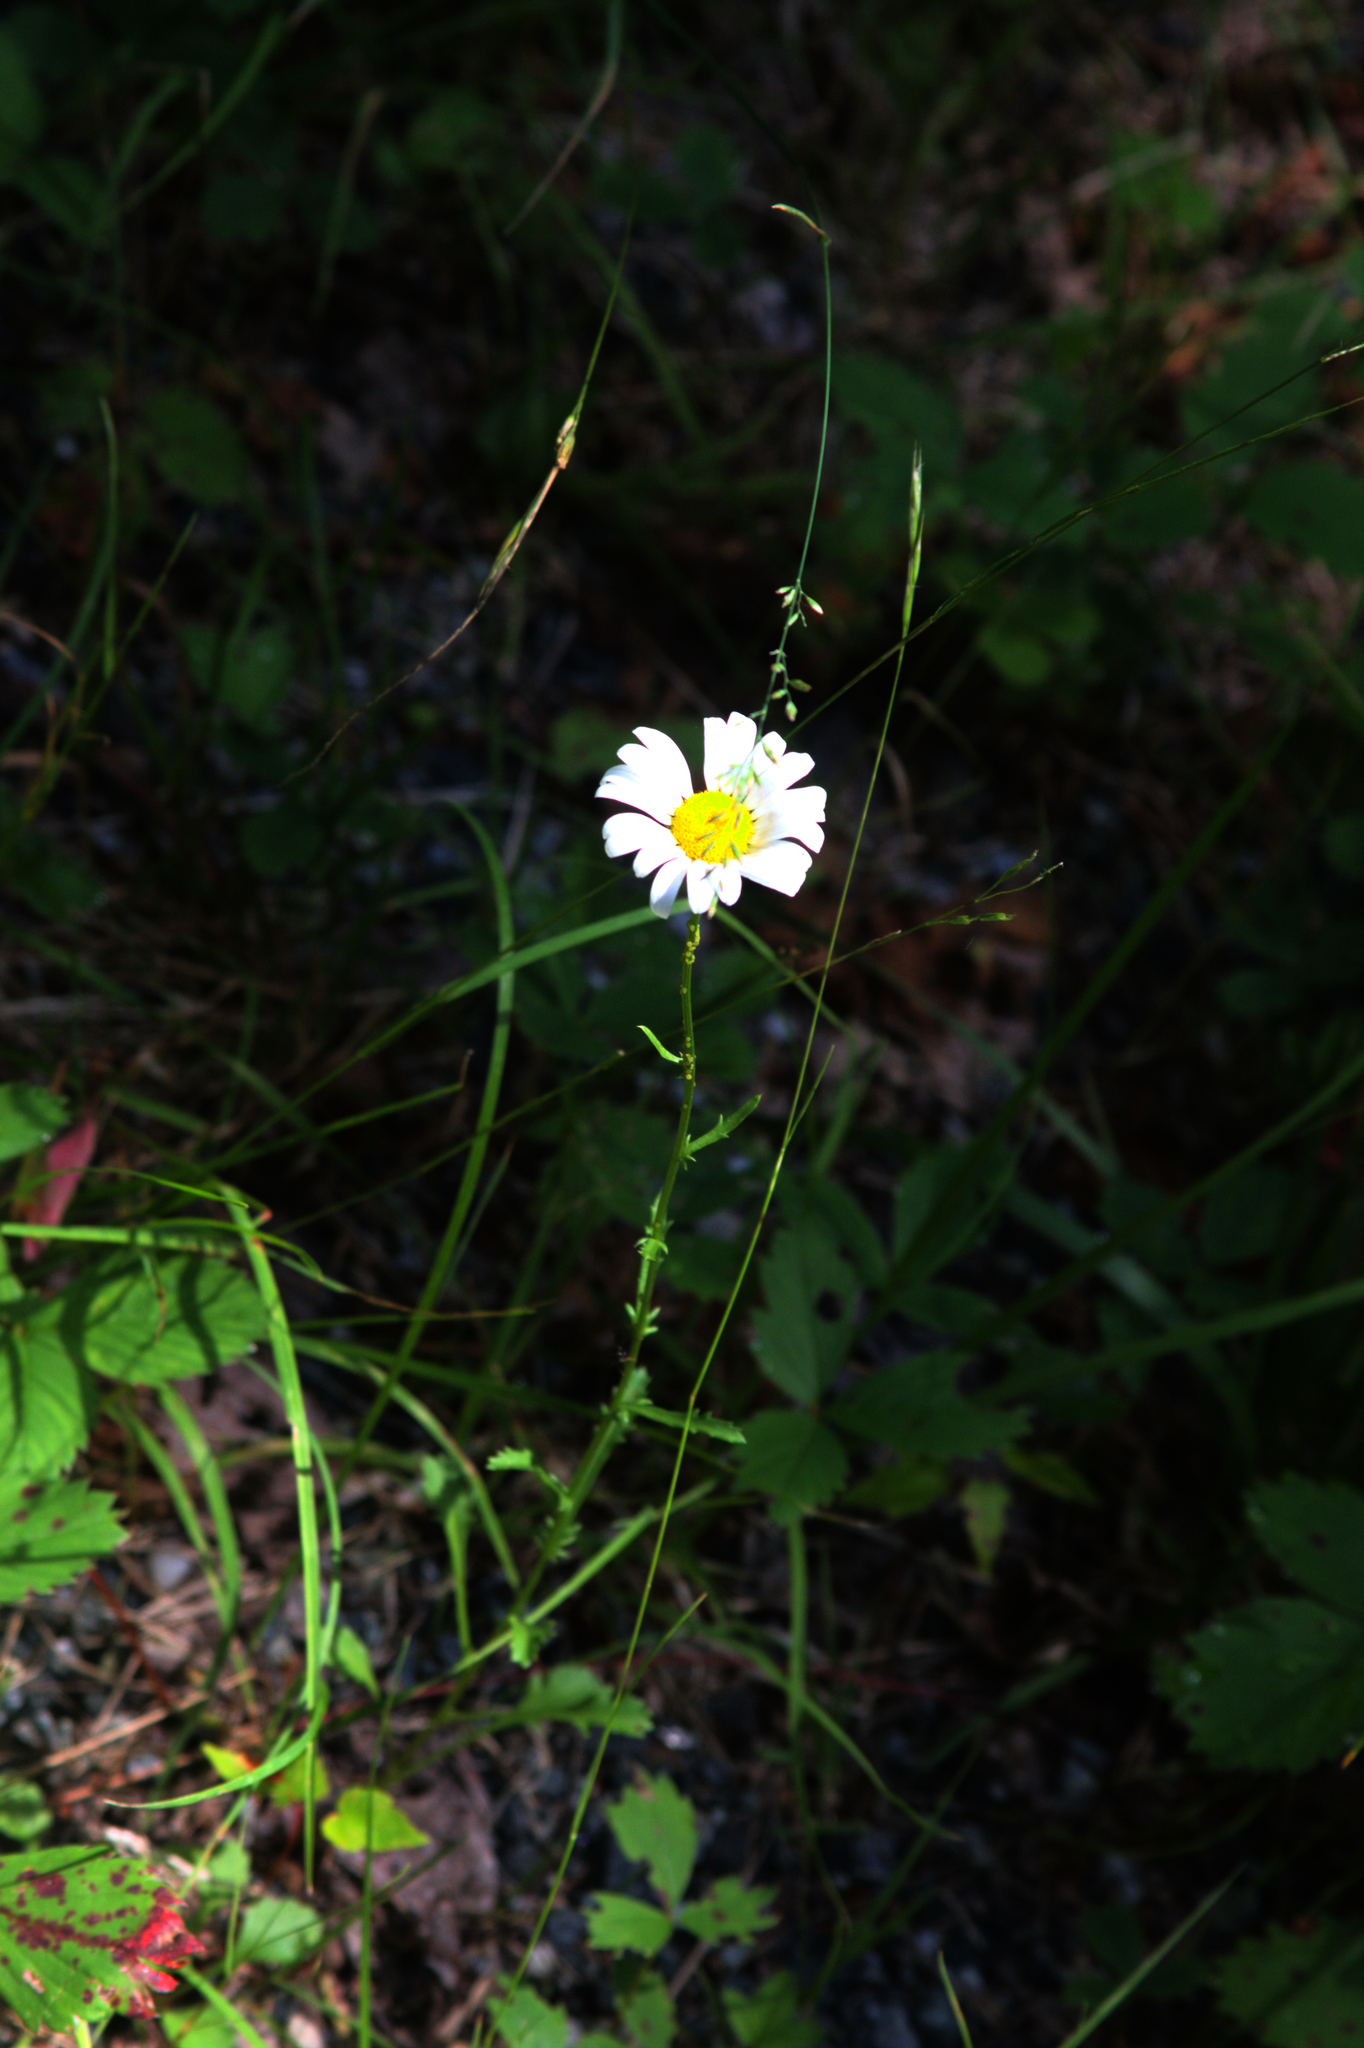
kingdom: Plantae
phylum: Tracheophyta
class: Magnoliopsida
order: Asterales
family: Asteraceae
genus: Leucanthemum
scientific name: Leucanthemum vulgare
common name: Oxeye daisy
